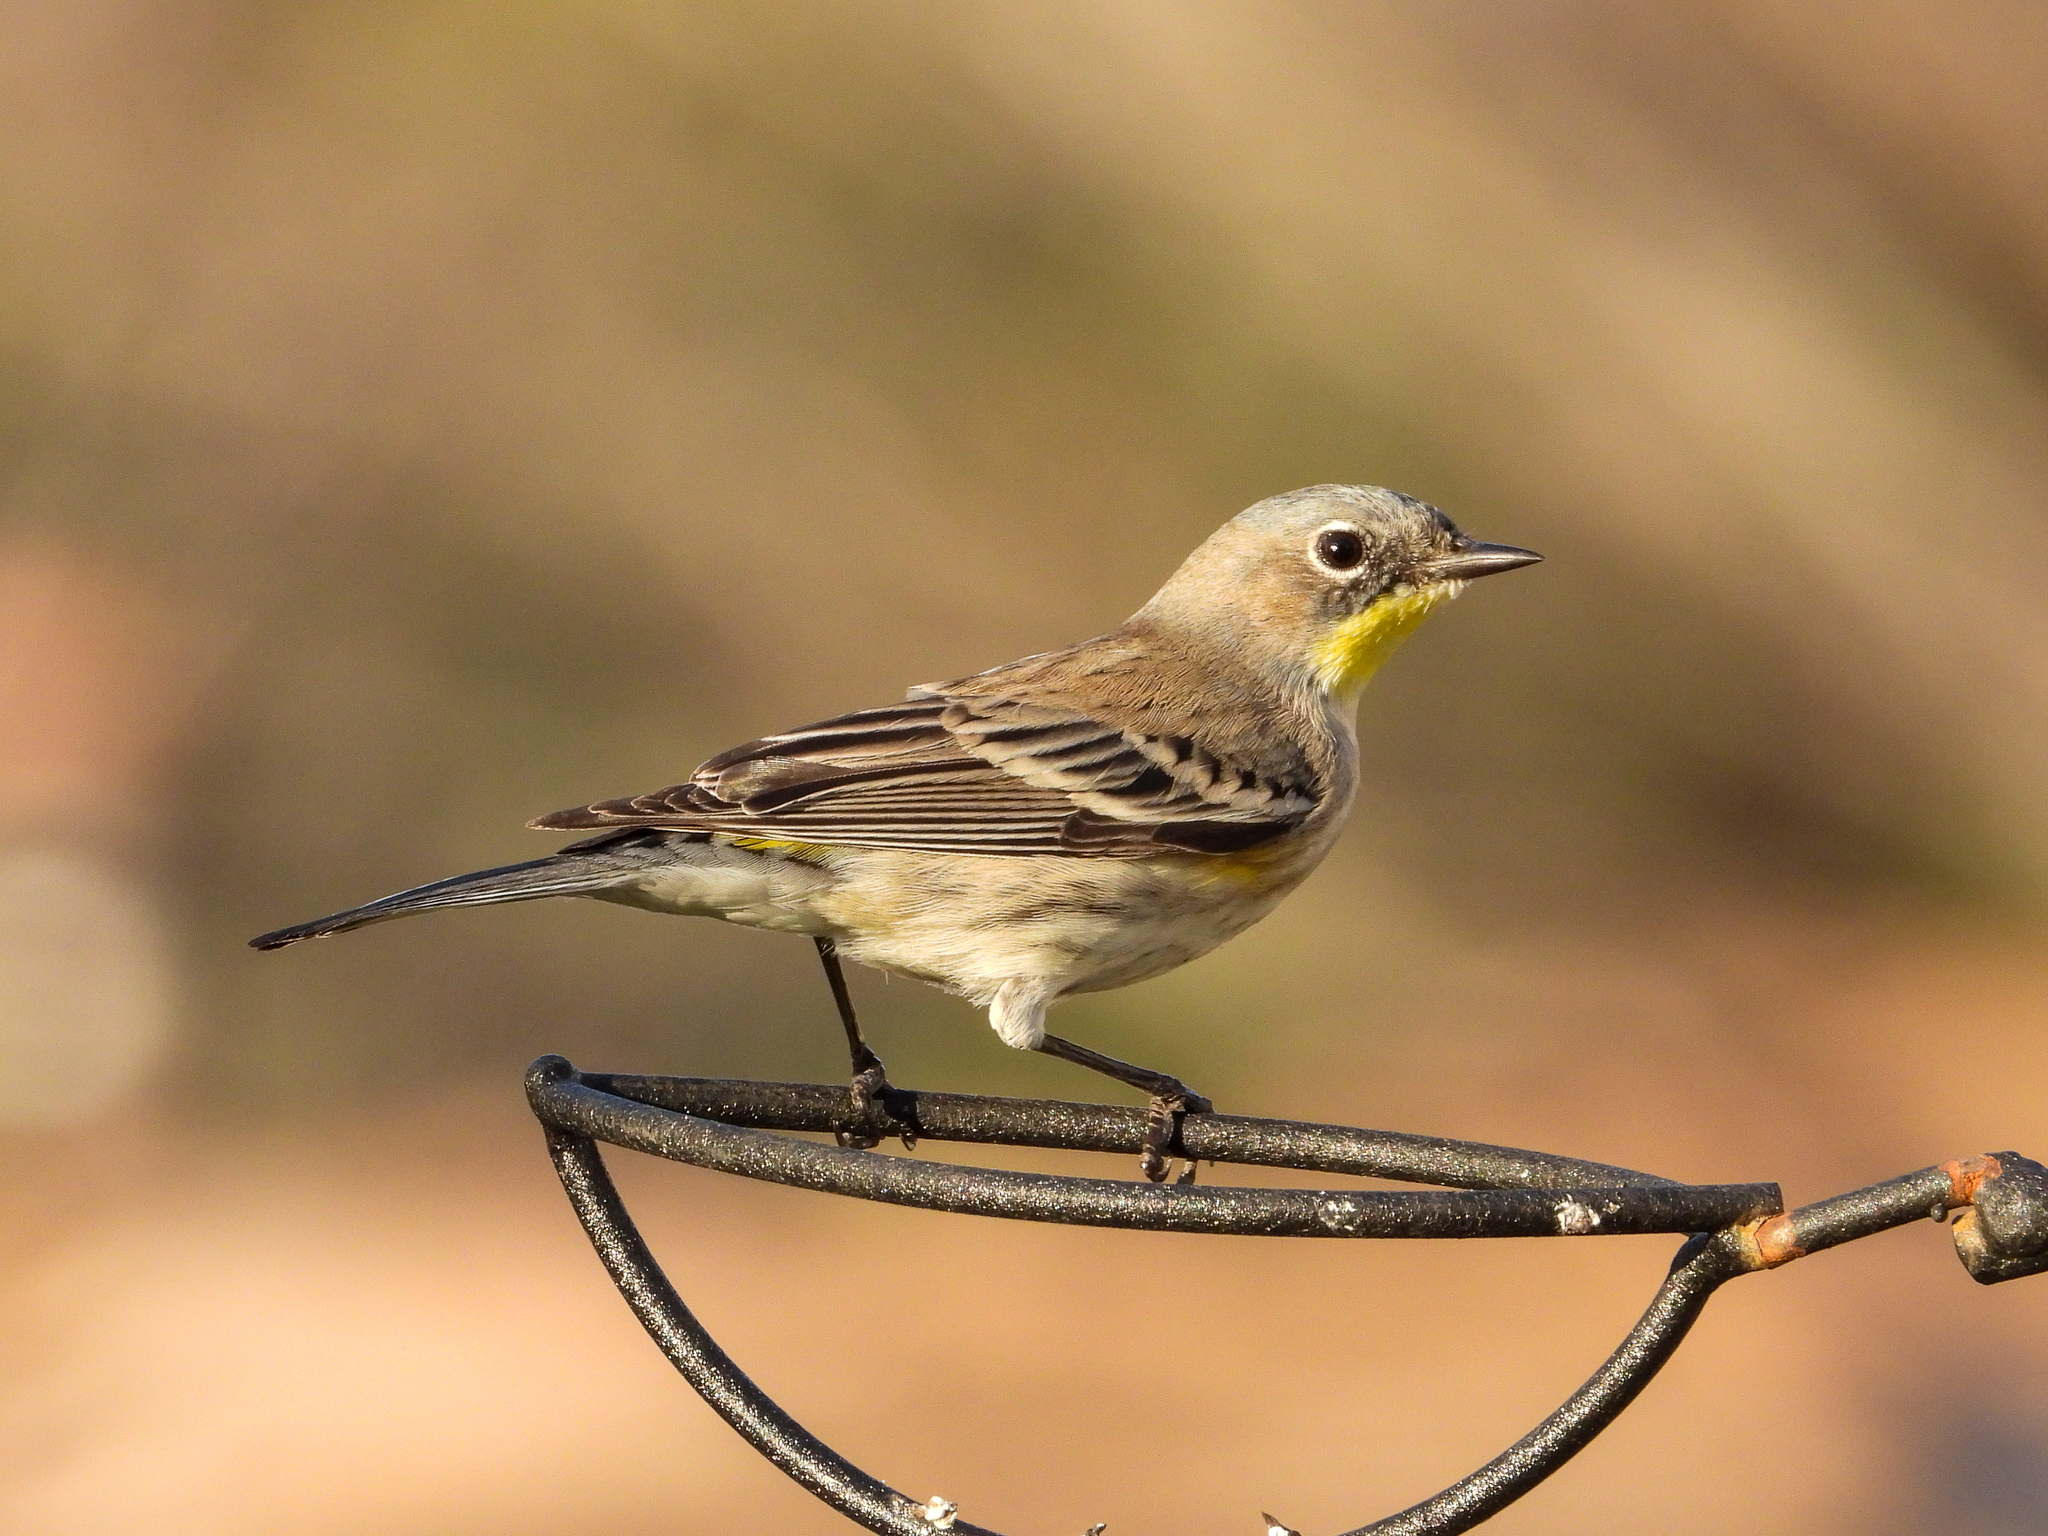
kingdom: Animalia
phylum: Chordata
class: Aves
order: Passeriformes
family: Parulidae
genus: Setophaga
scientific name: Setophaga coronata
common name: Myrtle warbler
